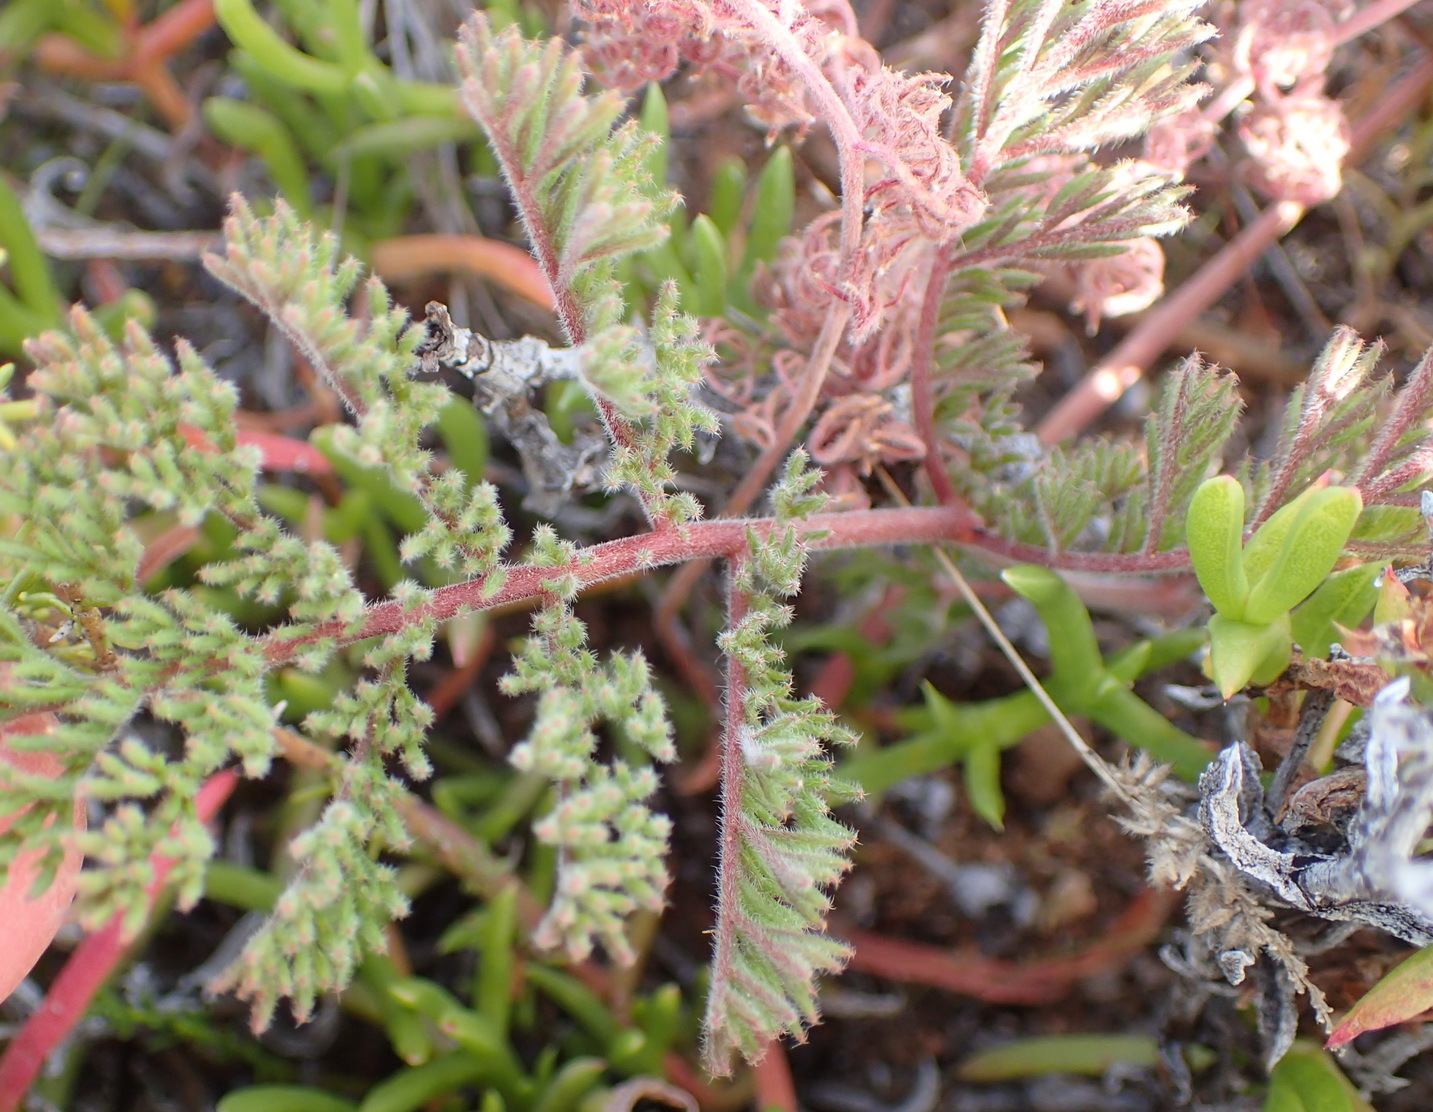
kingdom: Plantae
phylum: Tracheophyta
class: Magnoliopsida
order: Geraniales
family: Geraniaceae
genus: Pelargonium
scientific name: Pelargonium triste
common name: Night-scent pelargonium
